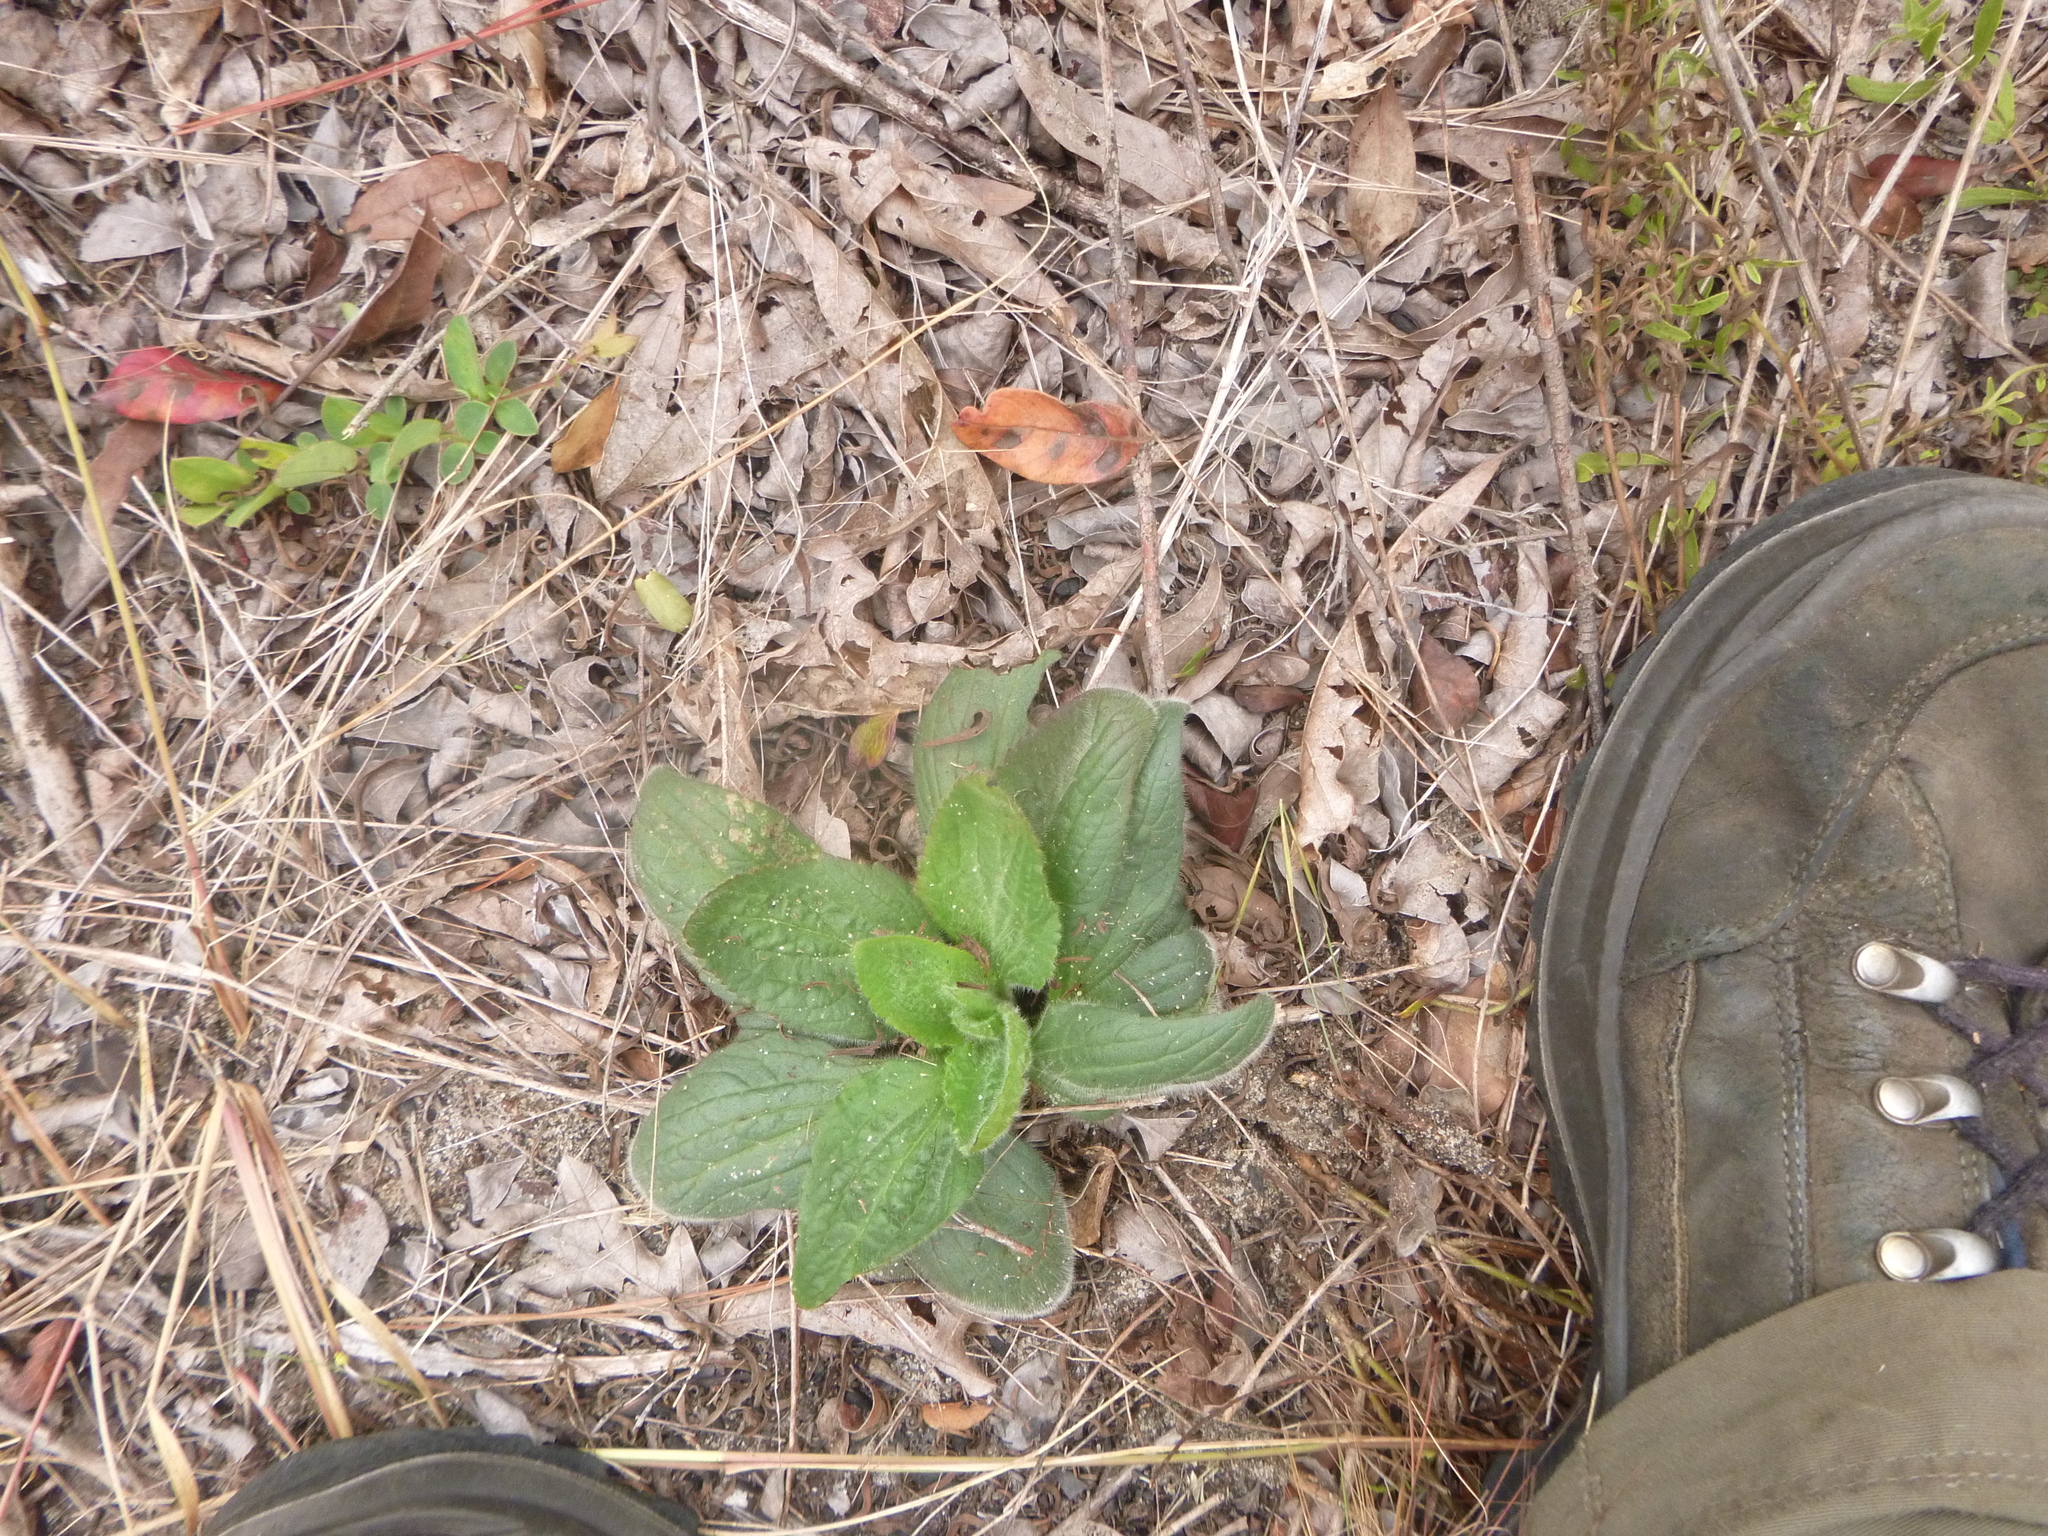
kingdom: Plantae
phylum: Tracheophyta
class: Magnoliopsida
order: Lamiales
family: Orobanchaceae
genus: Aureolaria
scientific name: Aureolaria pectinata
